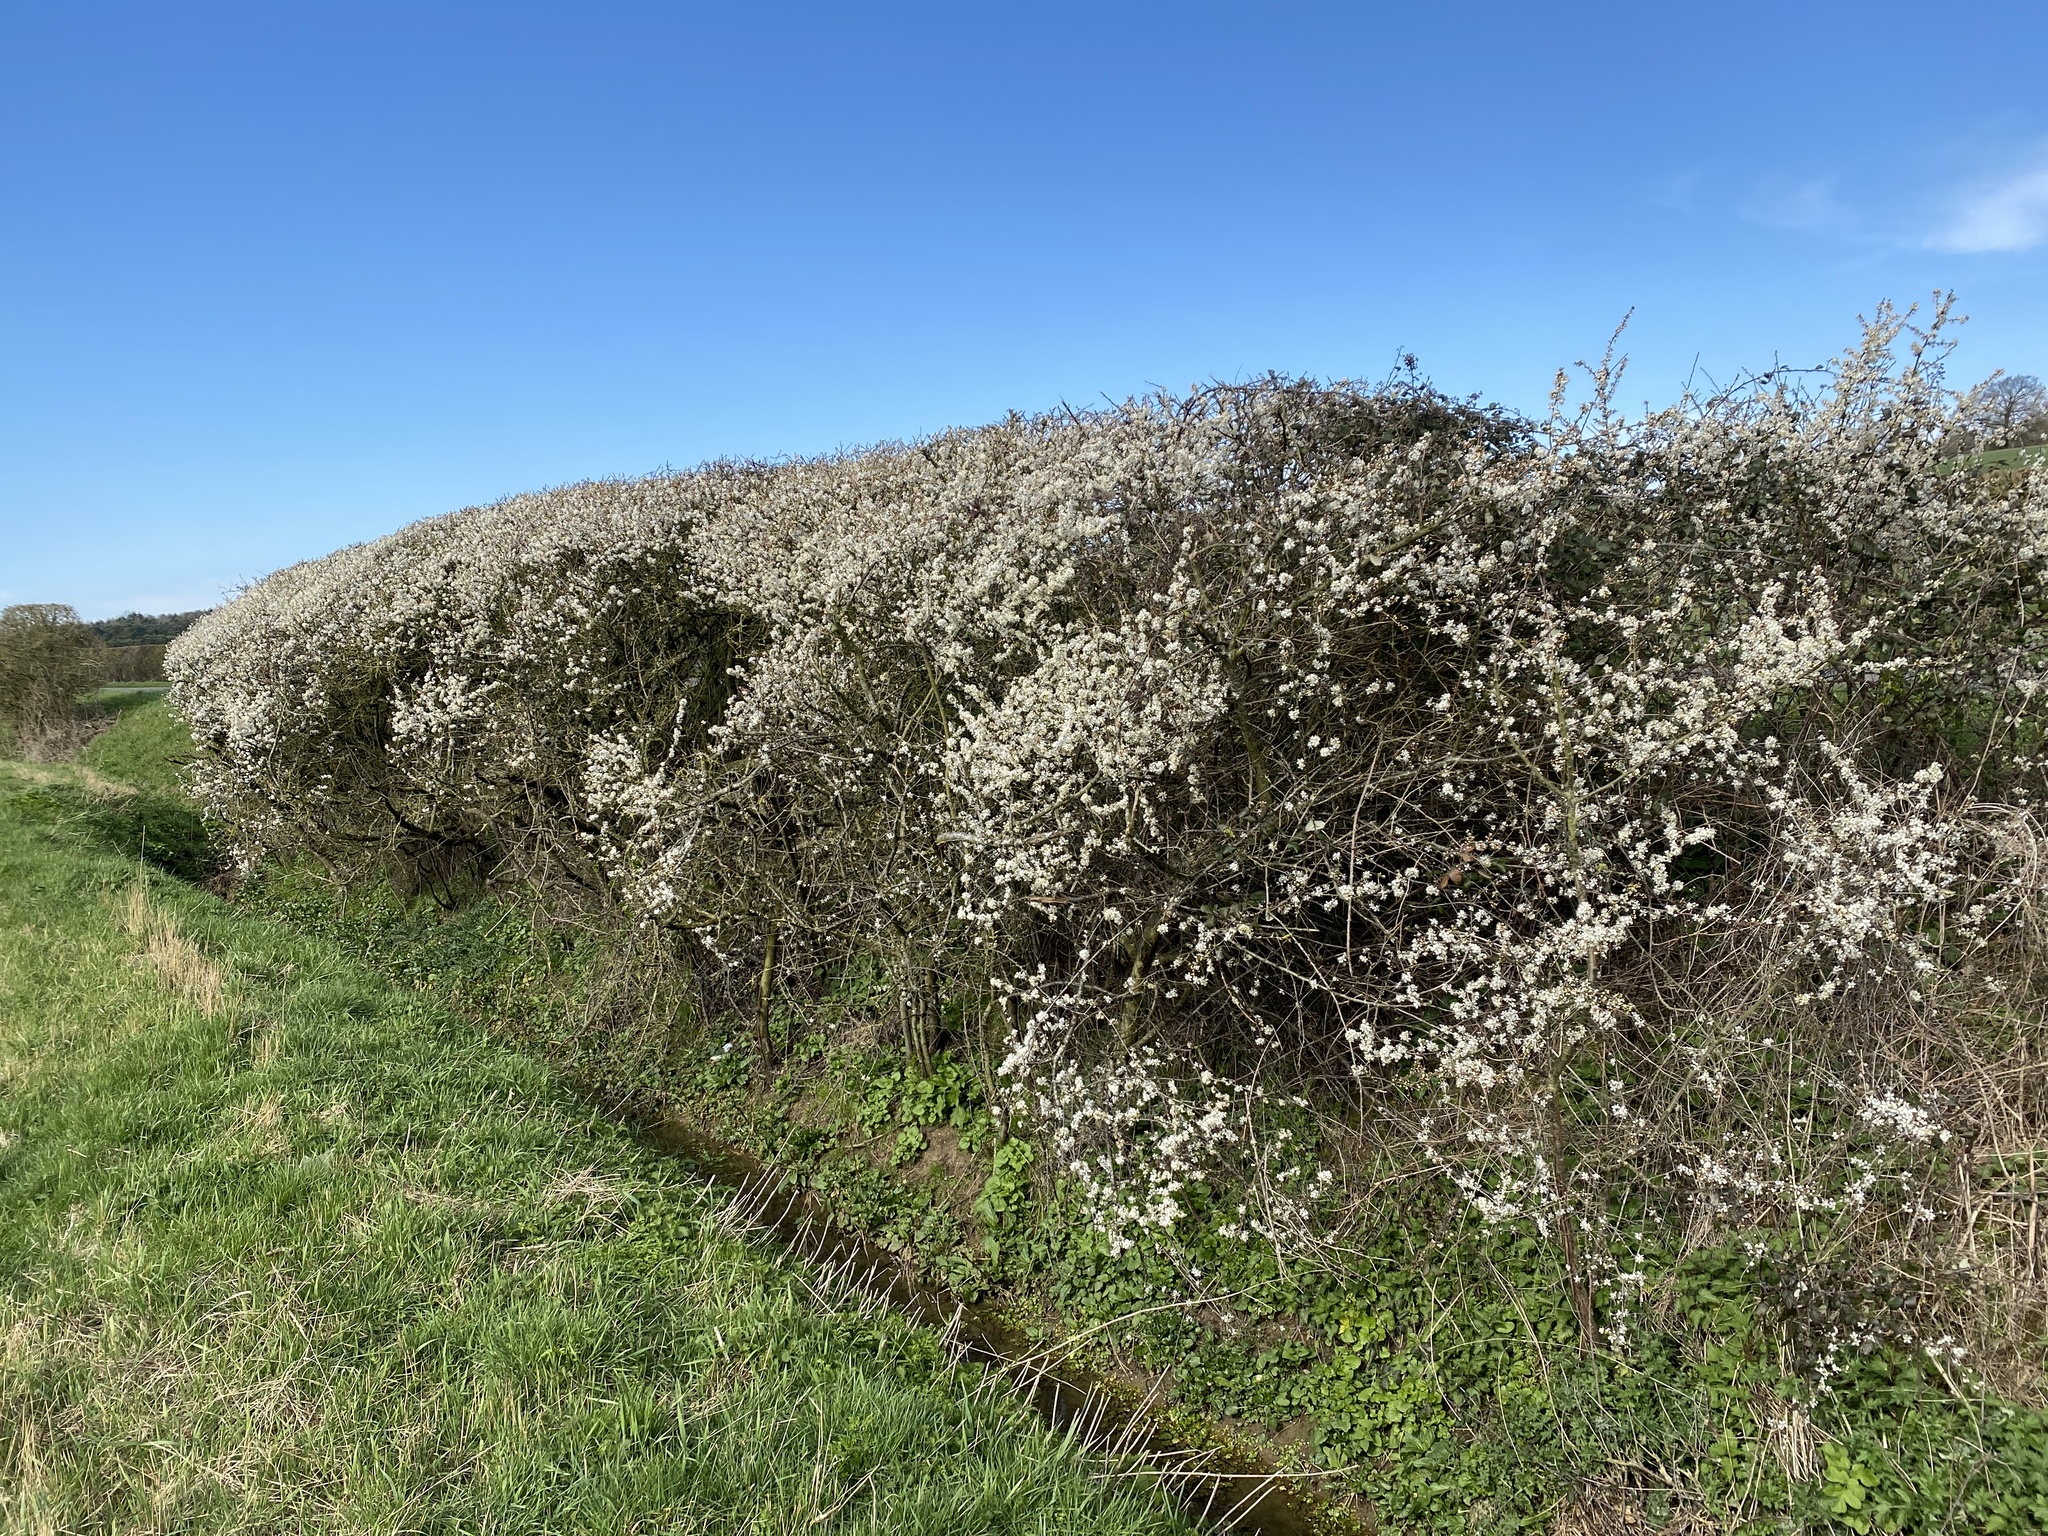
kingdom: Plantae
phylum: Tracheophyta
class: Magnoliopsida
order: Rosales
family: Rosaceae
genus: Prunus
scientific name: Prunus spinosa
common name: Blackthorn
